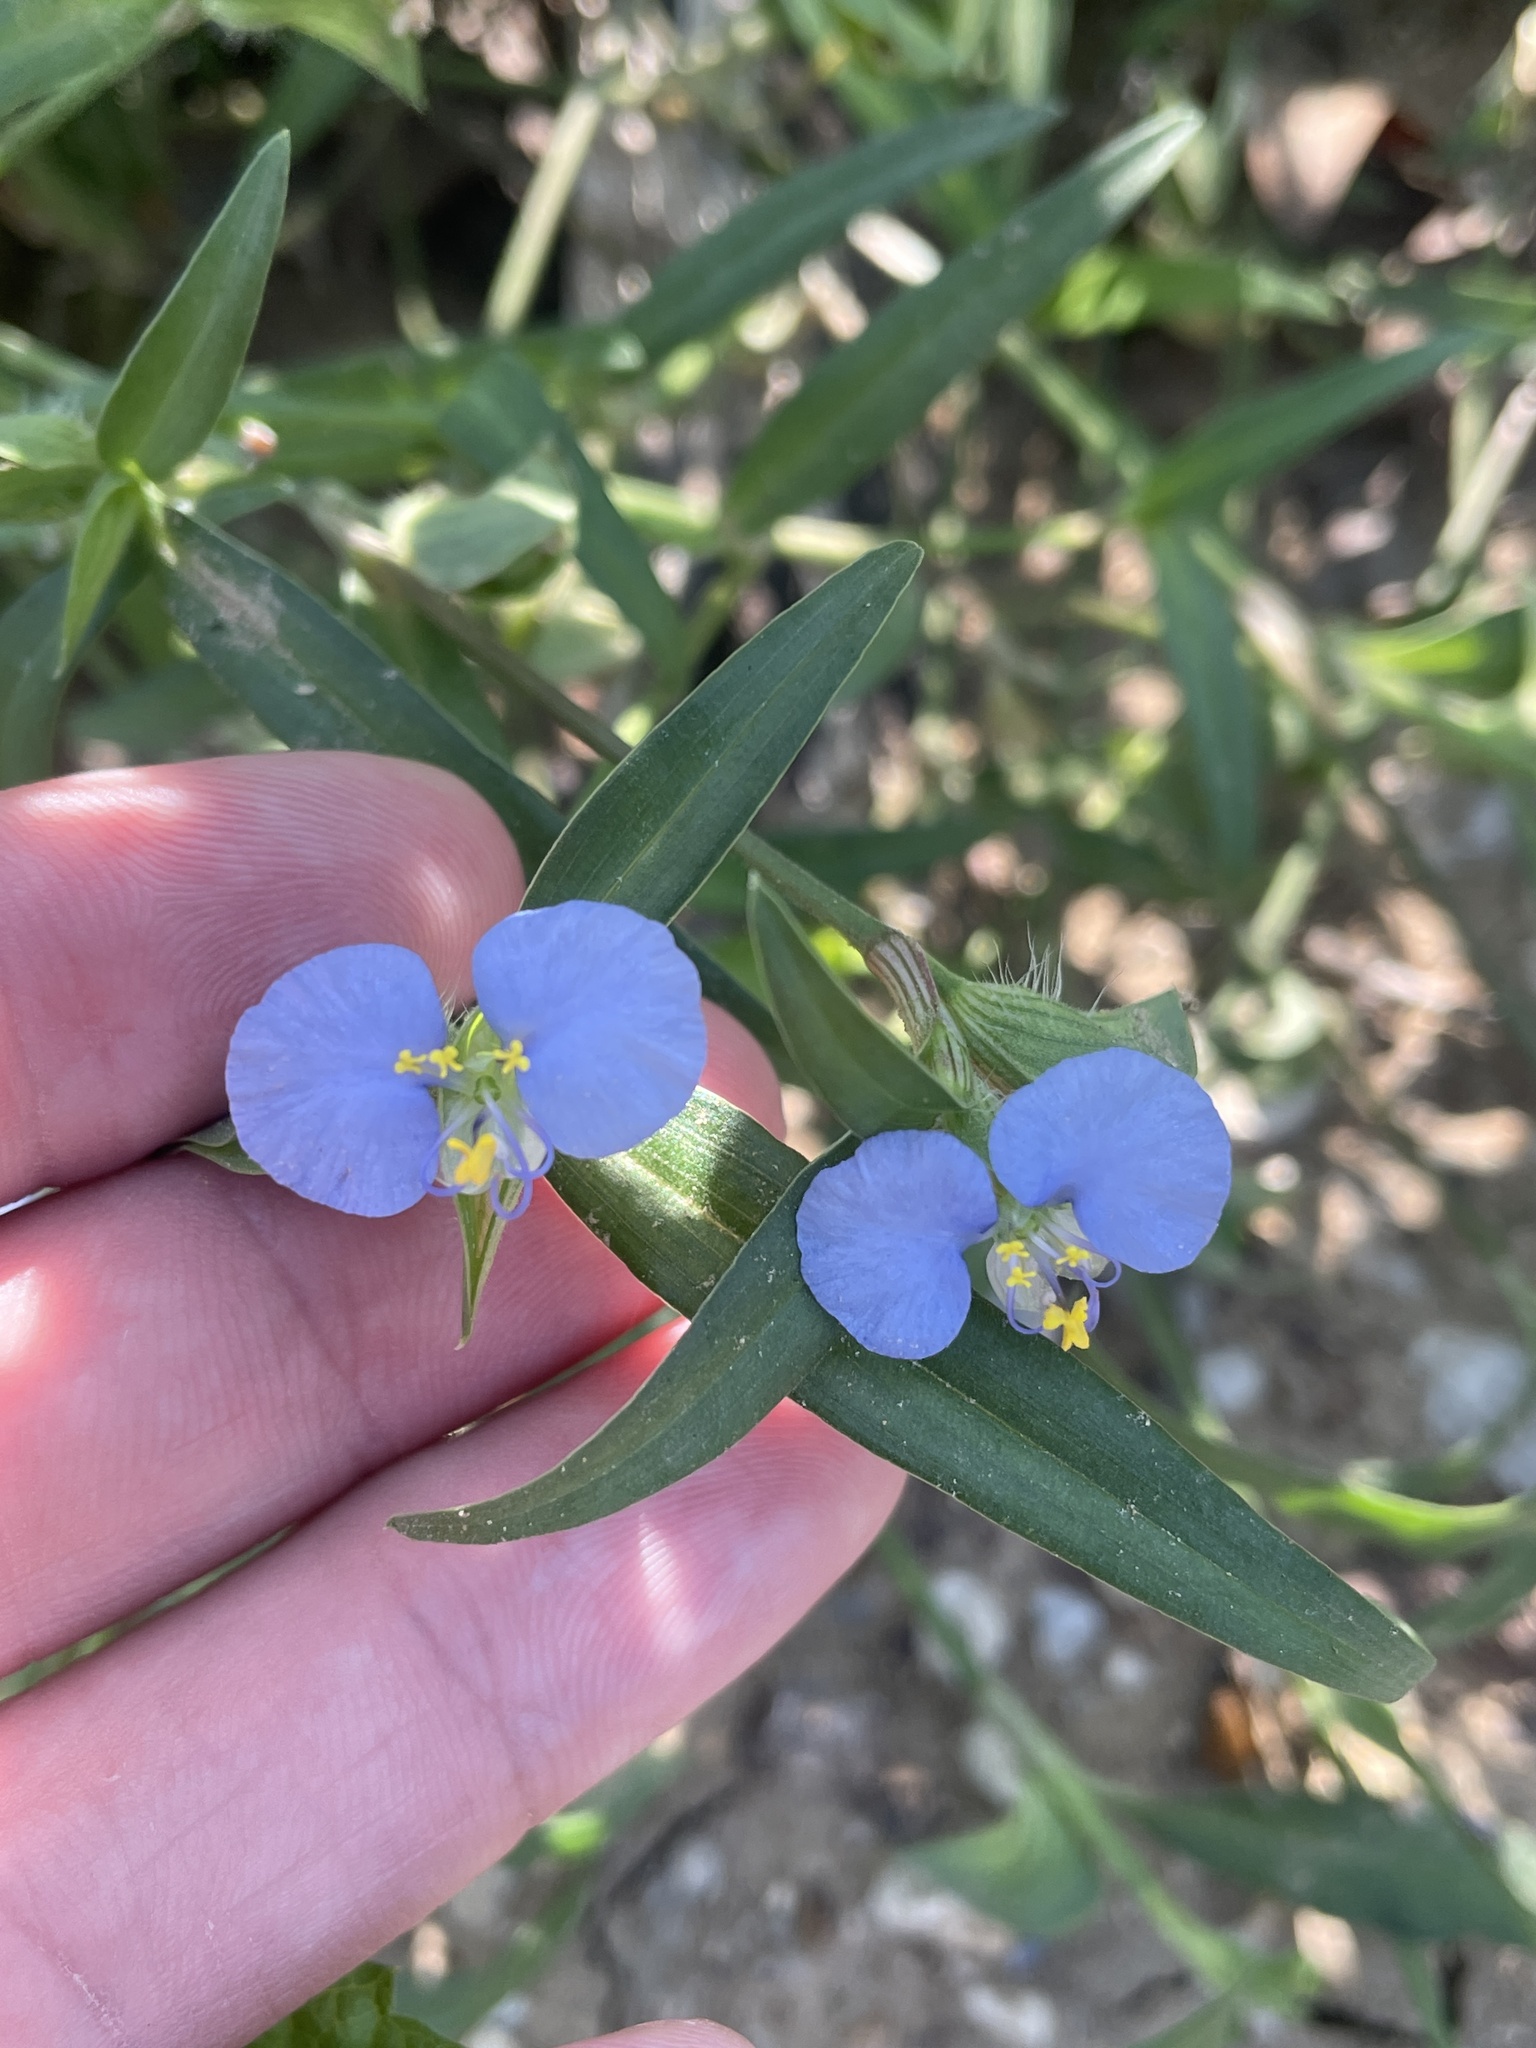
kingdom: Plantae
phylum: Tracheophyta
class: Liliopsida
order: Commelinales
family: Commelinaceae
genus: Commelina
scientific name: Commelina erecta
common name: Blousel blommetjie
